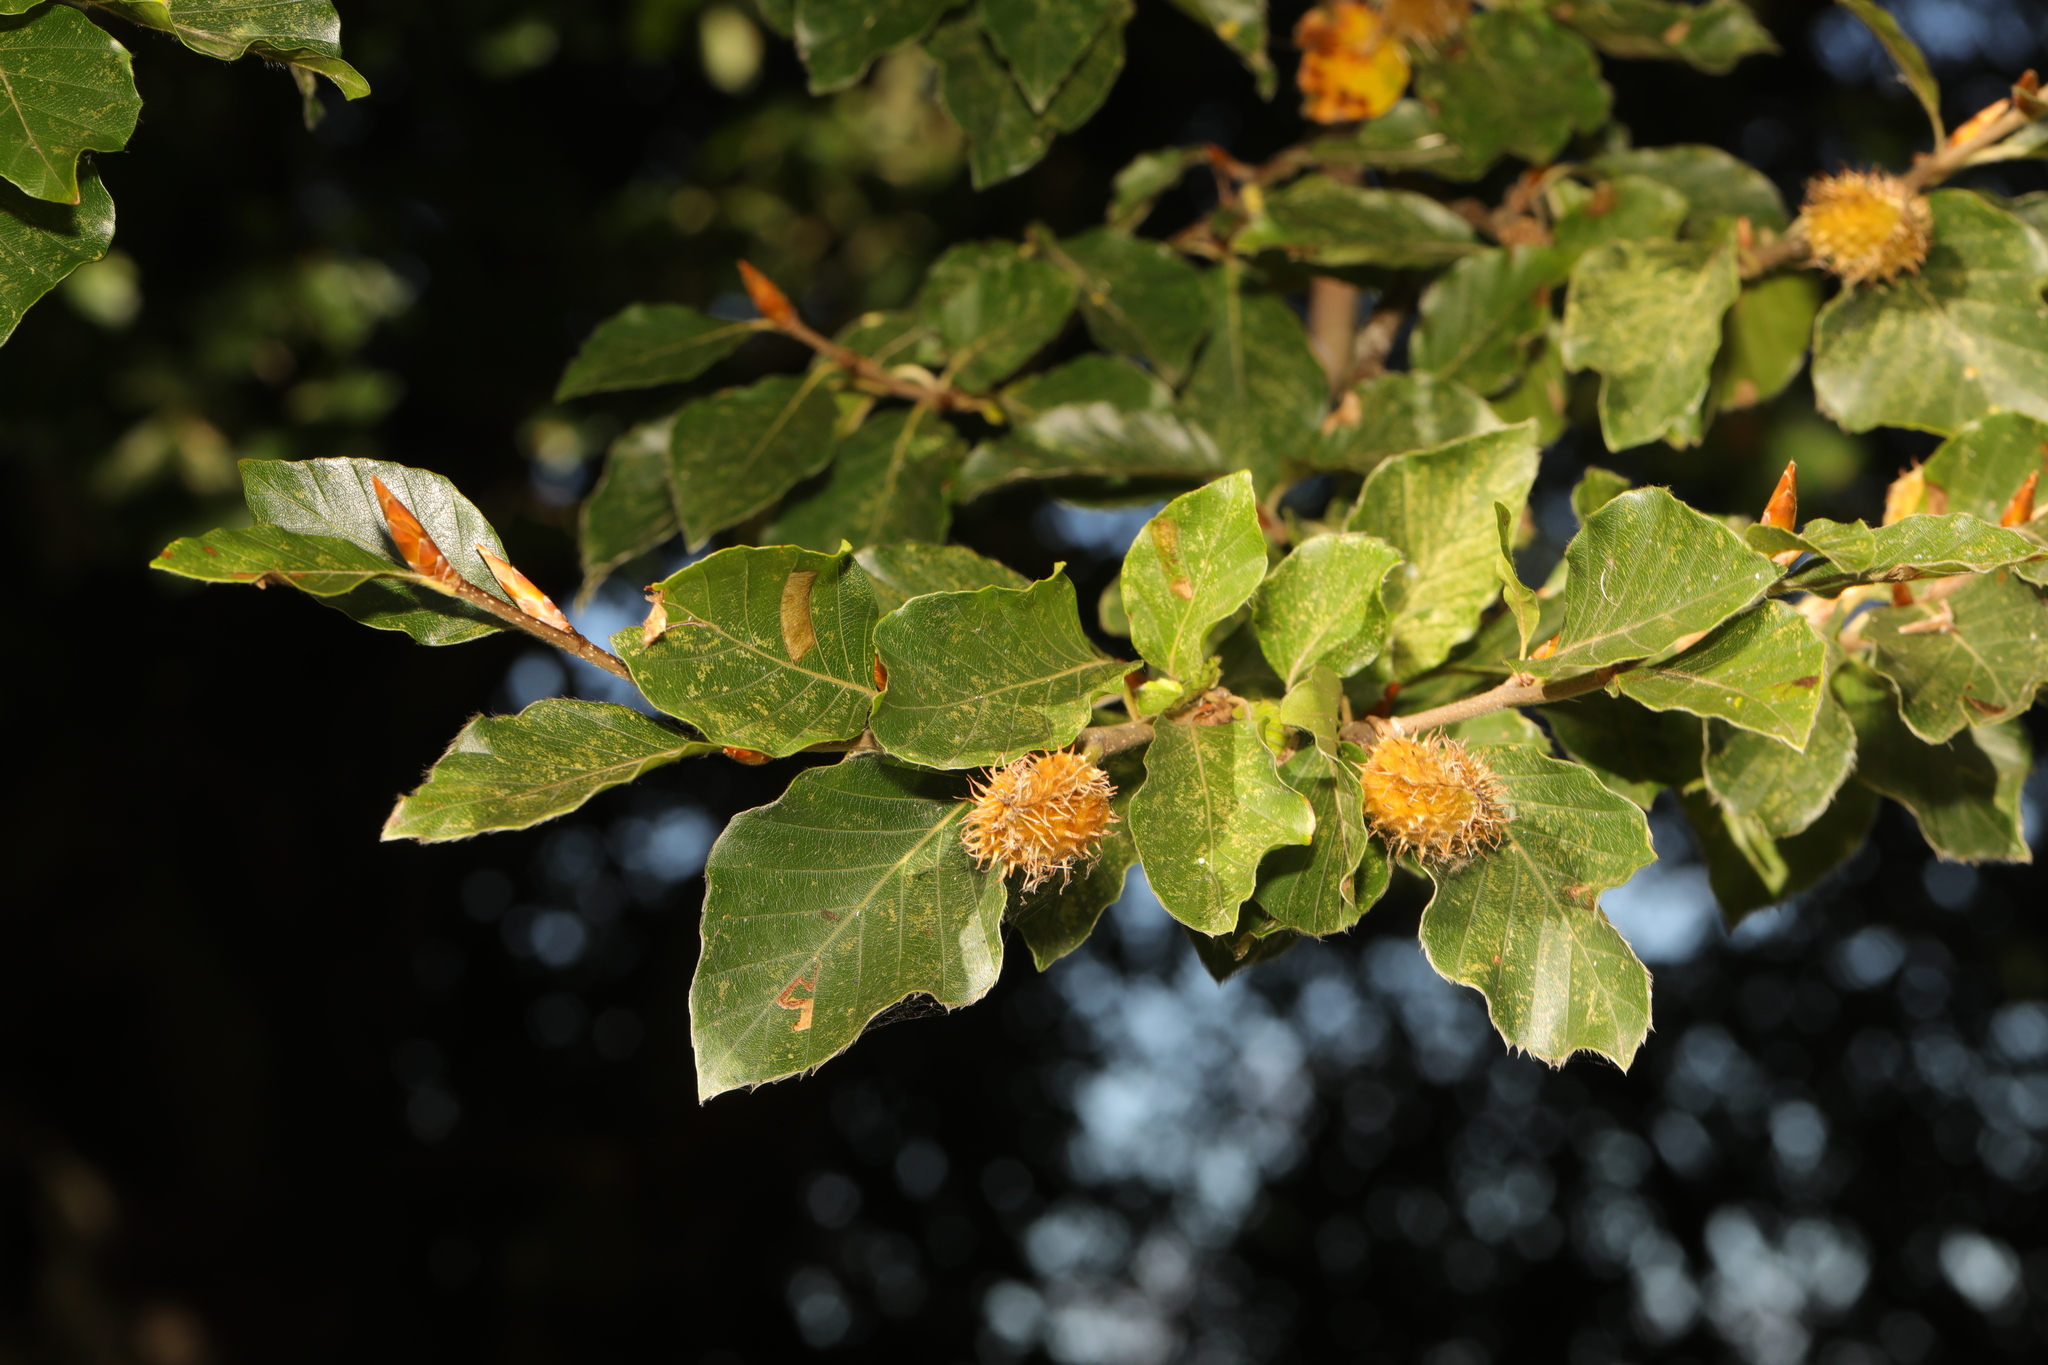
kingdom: Plantae
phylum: Tracheophyta
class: Magnoliopsida
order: Fagales
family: Fagaceae
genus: Fagus
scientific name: Fagus sylvatica
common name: Beech
